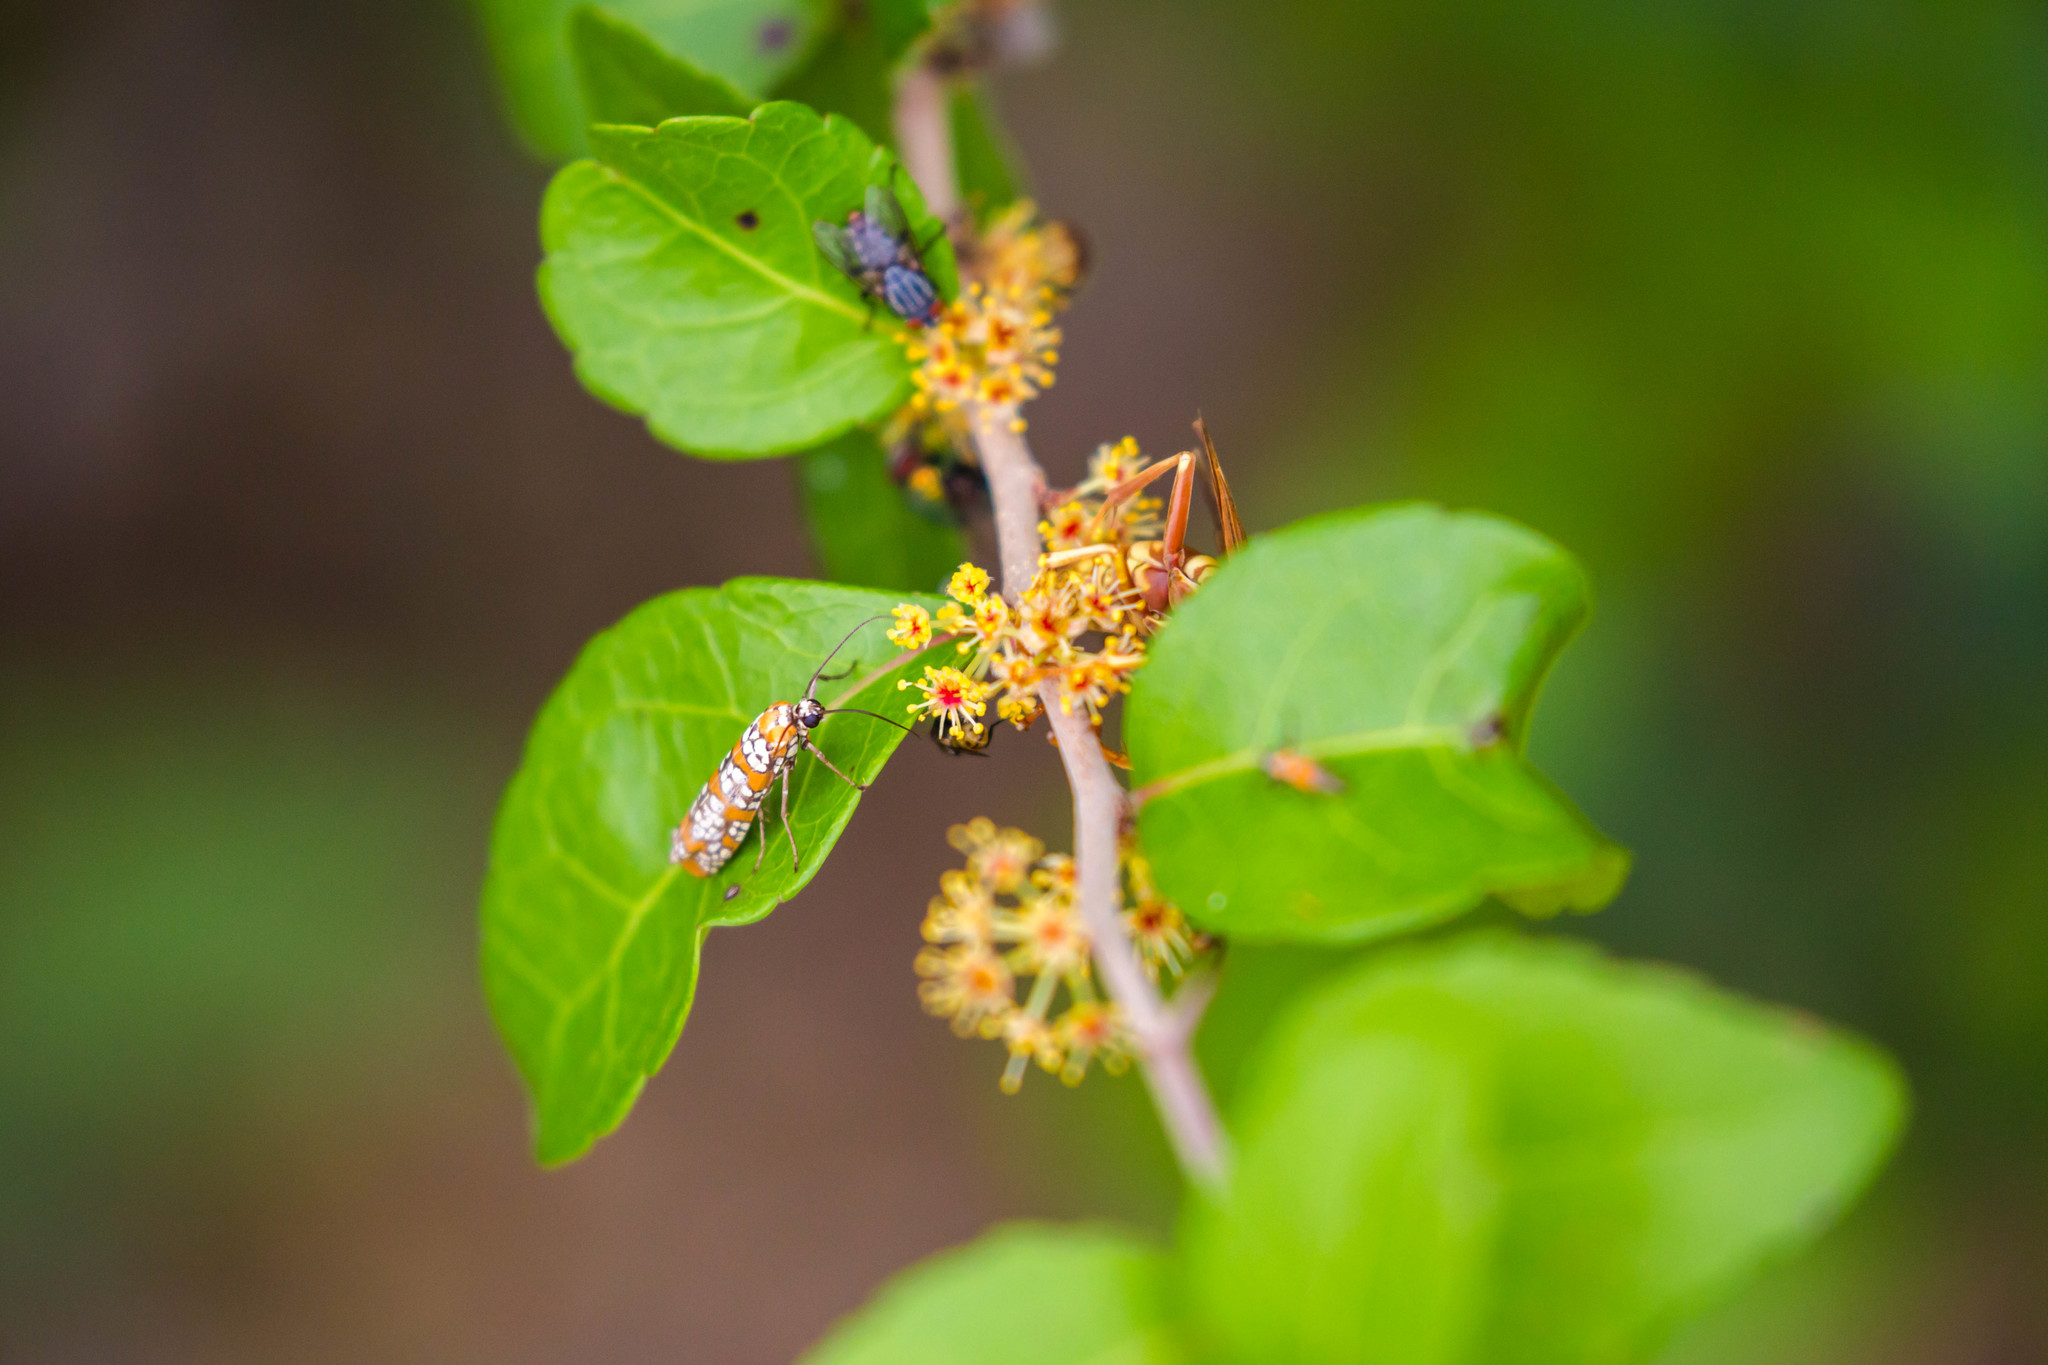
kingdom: Animalia
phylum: Arthropoda
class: Insecta
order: Lepidoptera
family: Attevidae
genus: Atteva
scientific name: Atteva punctella
